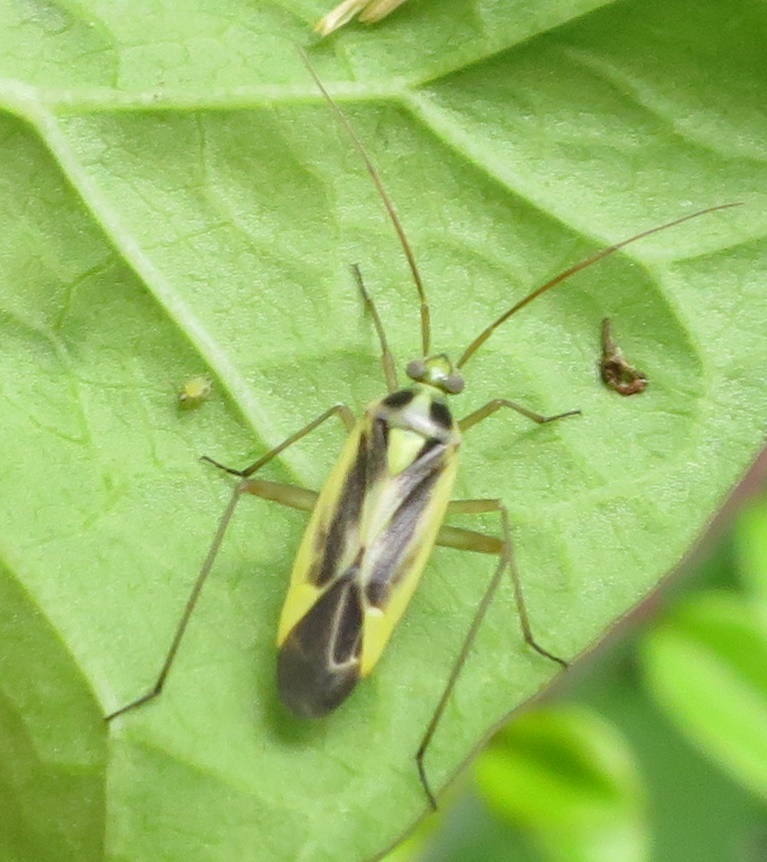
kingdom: Animalia
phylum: Arthropoda
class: Insecta
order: Hemiptera
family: Miridae
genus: Stenotus
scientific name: Stenotus binotatus
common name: Plant bug
